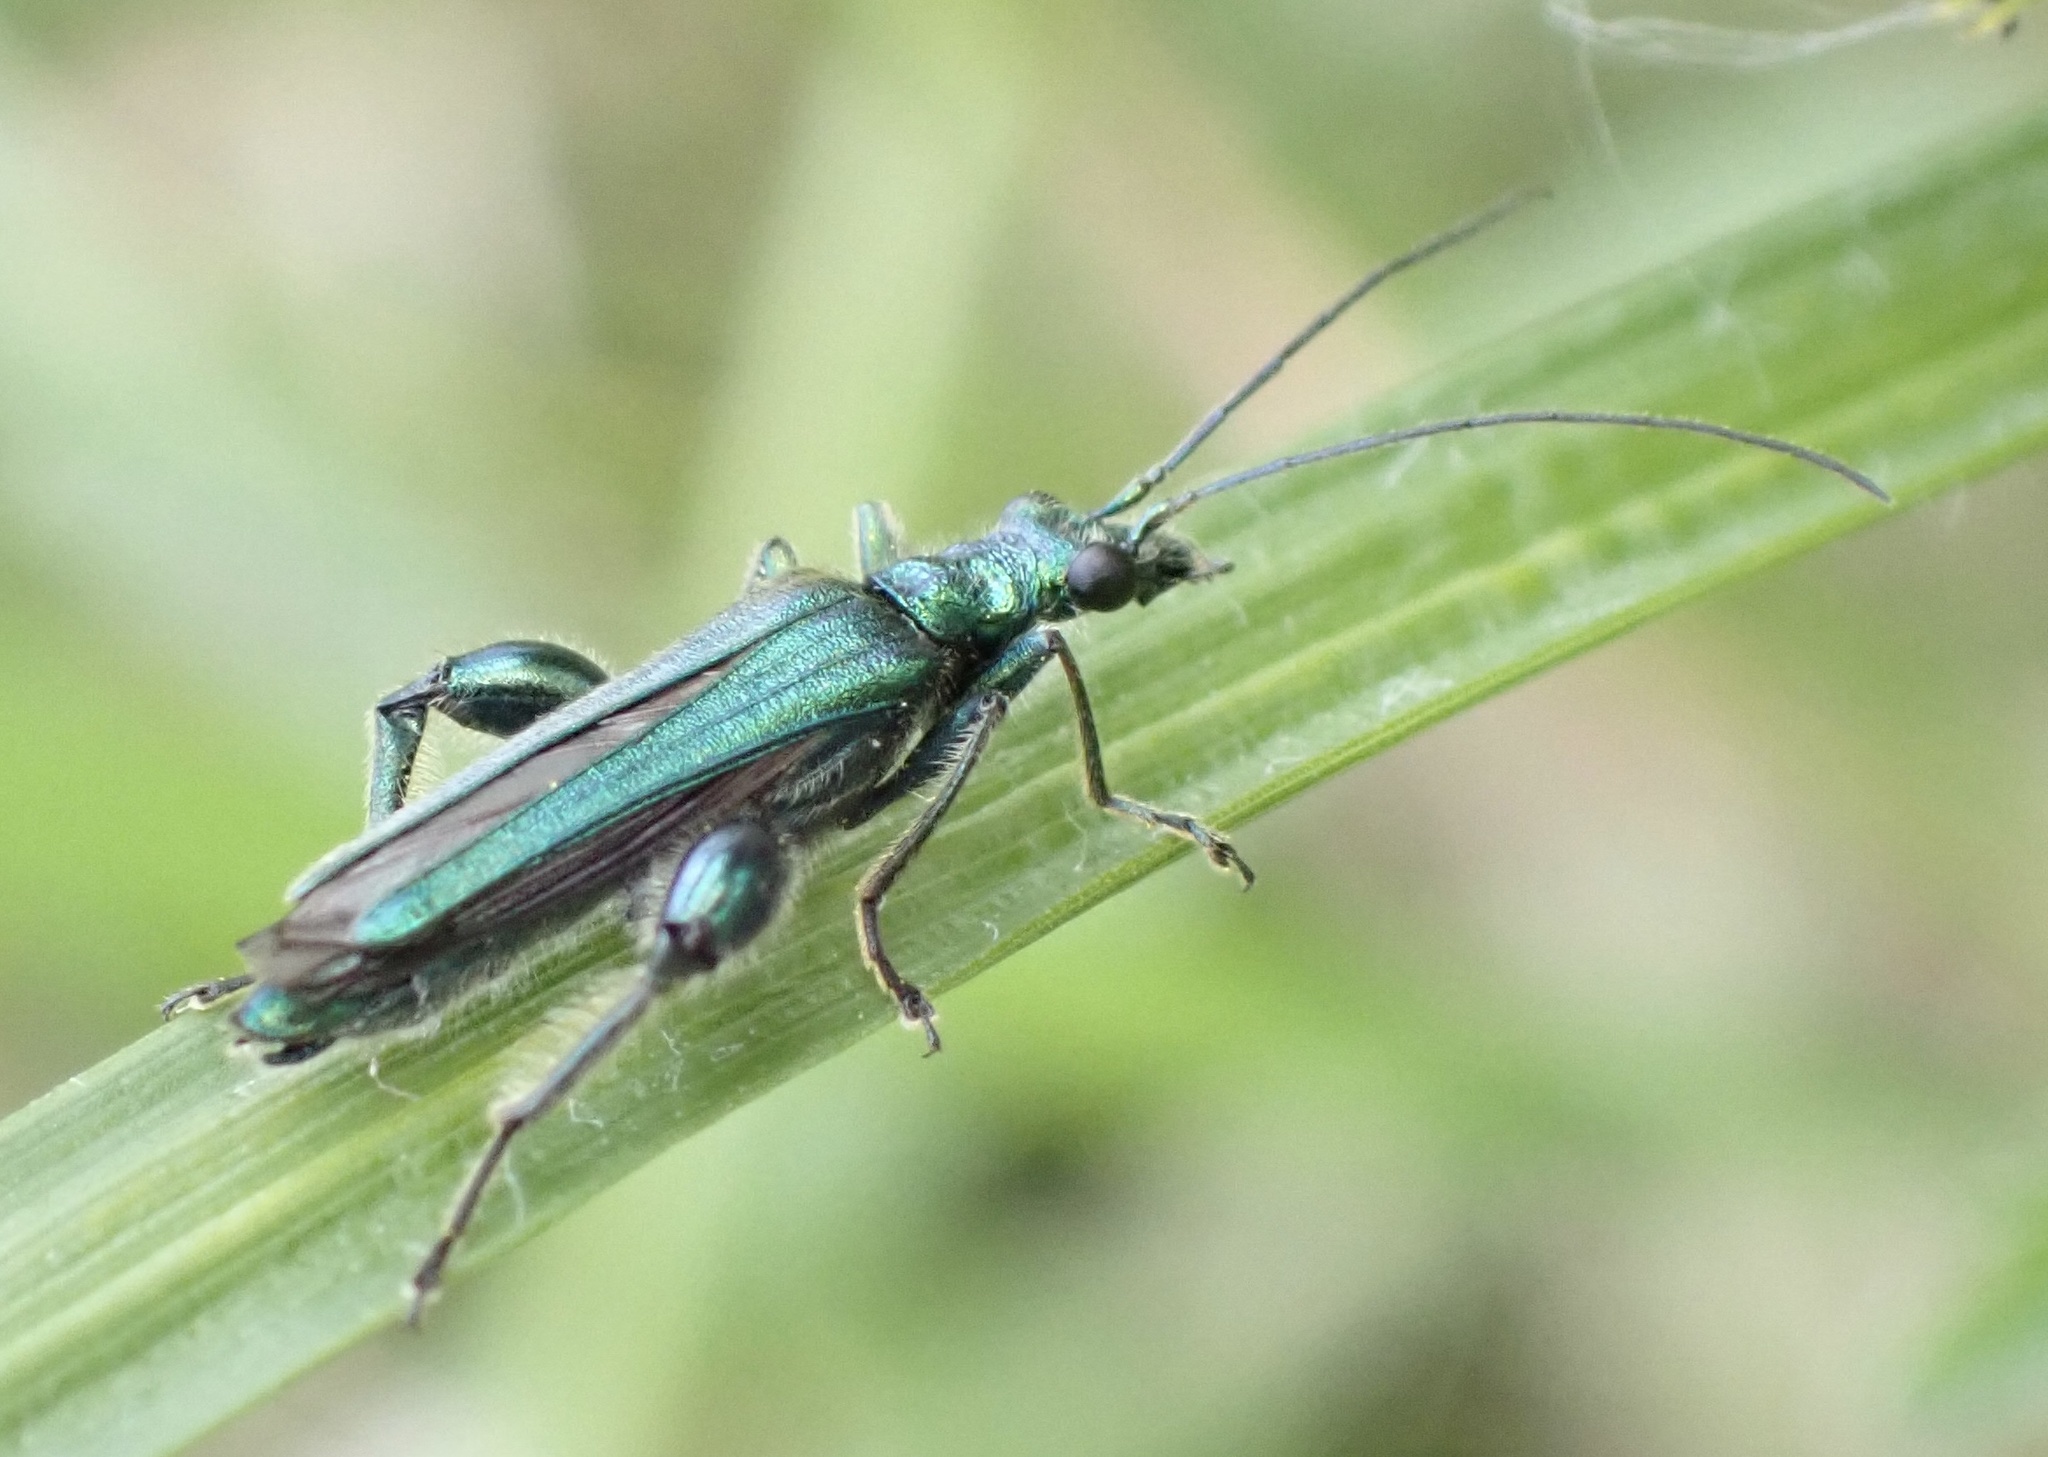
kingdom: Animalia
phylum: Arthropoda
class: Insecta
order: Coleoptera
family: Oedemeridae
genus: Oedemera
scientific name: Oedemera nobilis
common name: Swollen-thighed beetle
